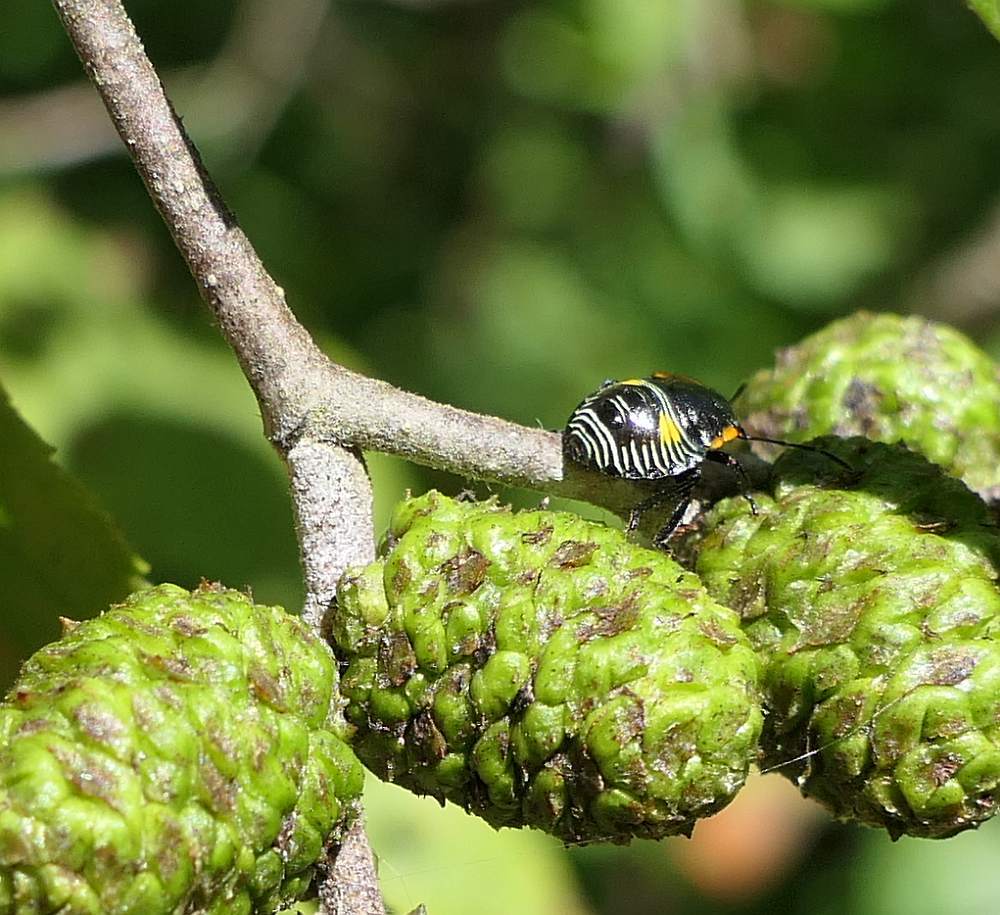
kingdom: Animalia
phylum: Arthropoda
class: Insecta
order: Hemiptera
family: Pentatomidae
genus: Chinavia
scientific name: Chinavia hilaris
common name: Green stink bug
